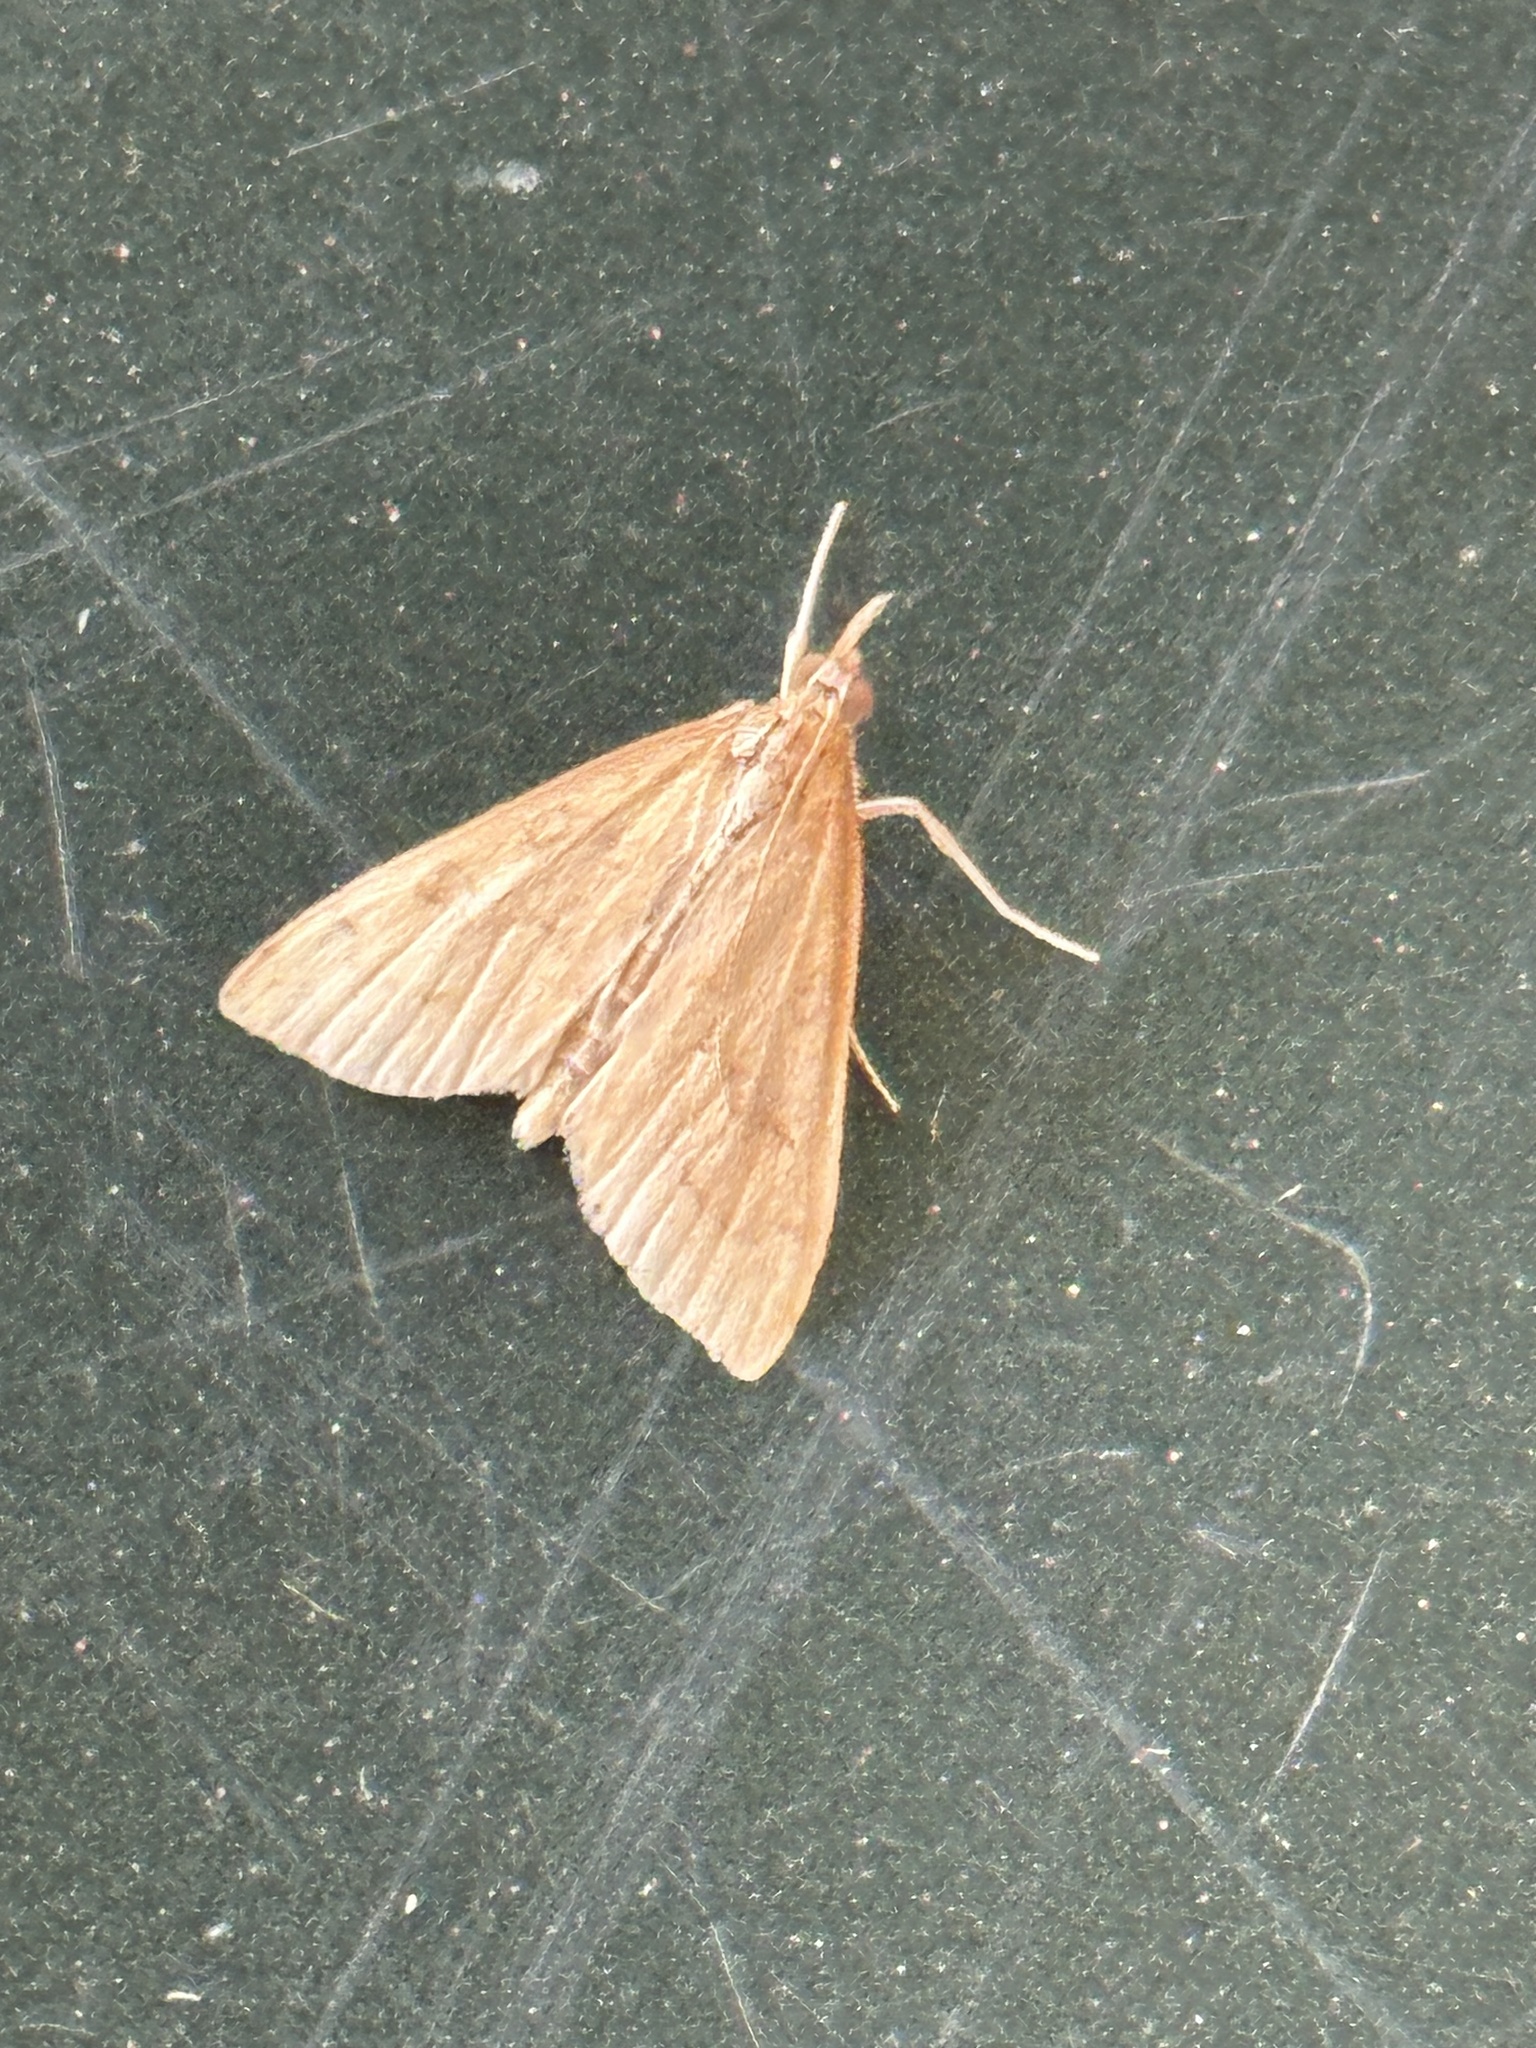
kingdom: Animalia
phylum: Arthropoda
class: Insecta
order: Lepidoptera
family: Crambidae
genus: Udea
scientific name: Udea rubigalis
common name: Celery leaftier moth
